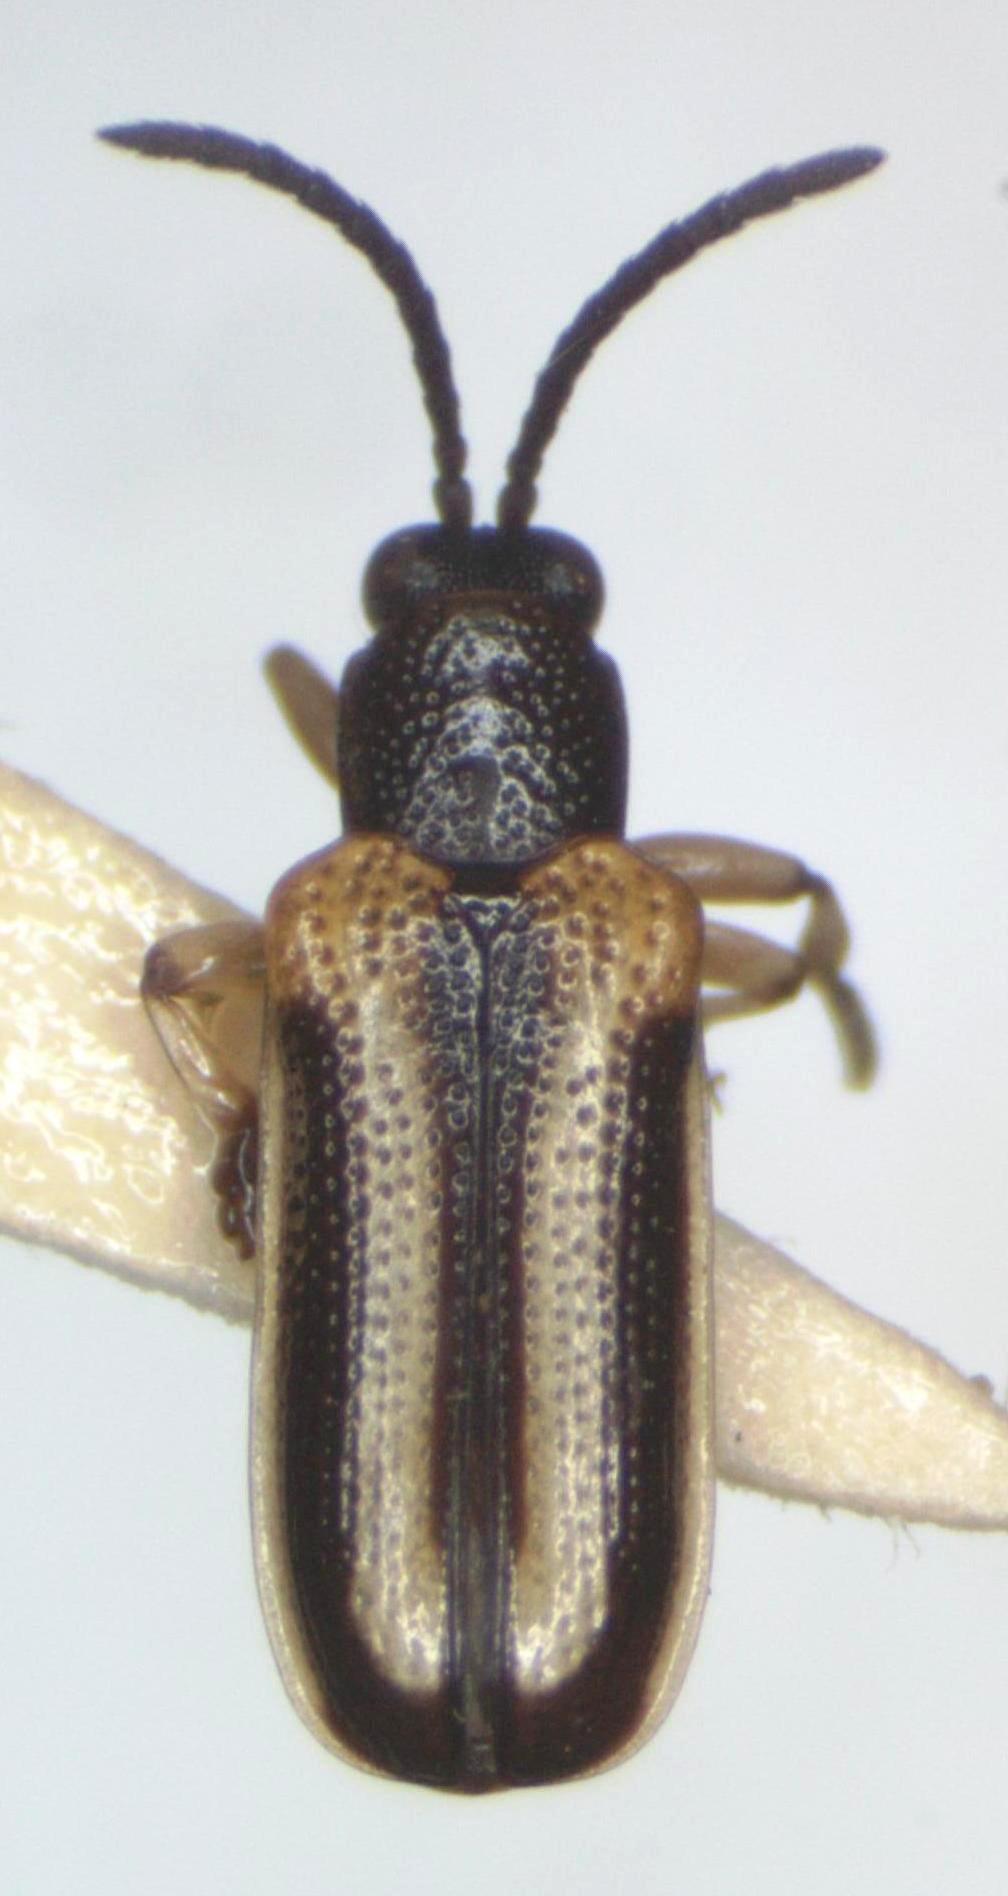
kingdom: Animalia
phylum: Arthropoda
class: Insecta
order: Coleoptera
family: Chrysomelidae
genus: Cephaloleia
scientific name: Cephaloleia trivittata
